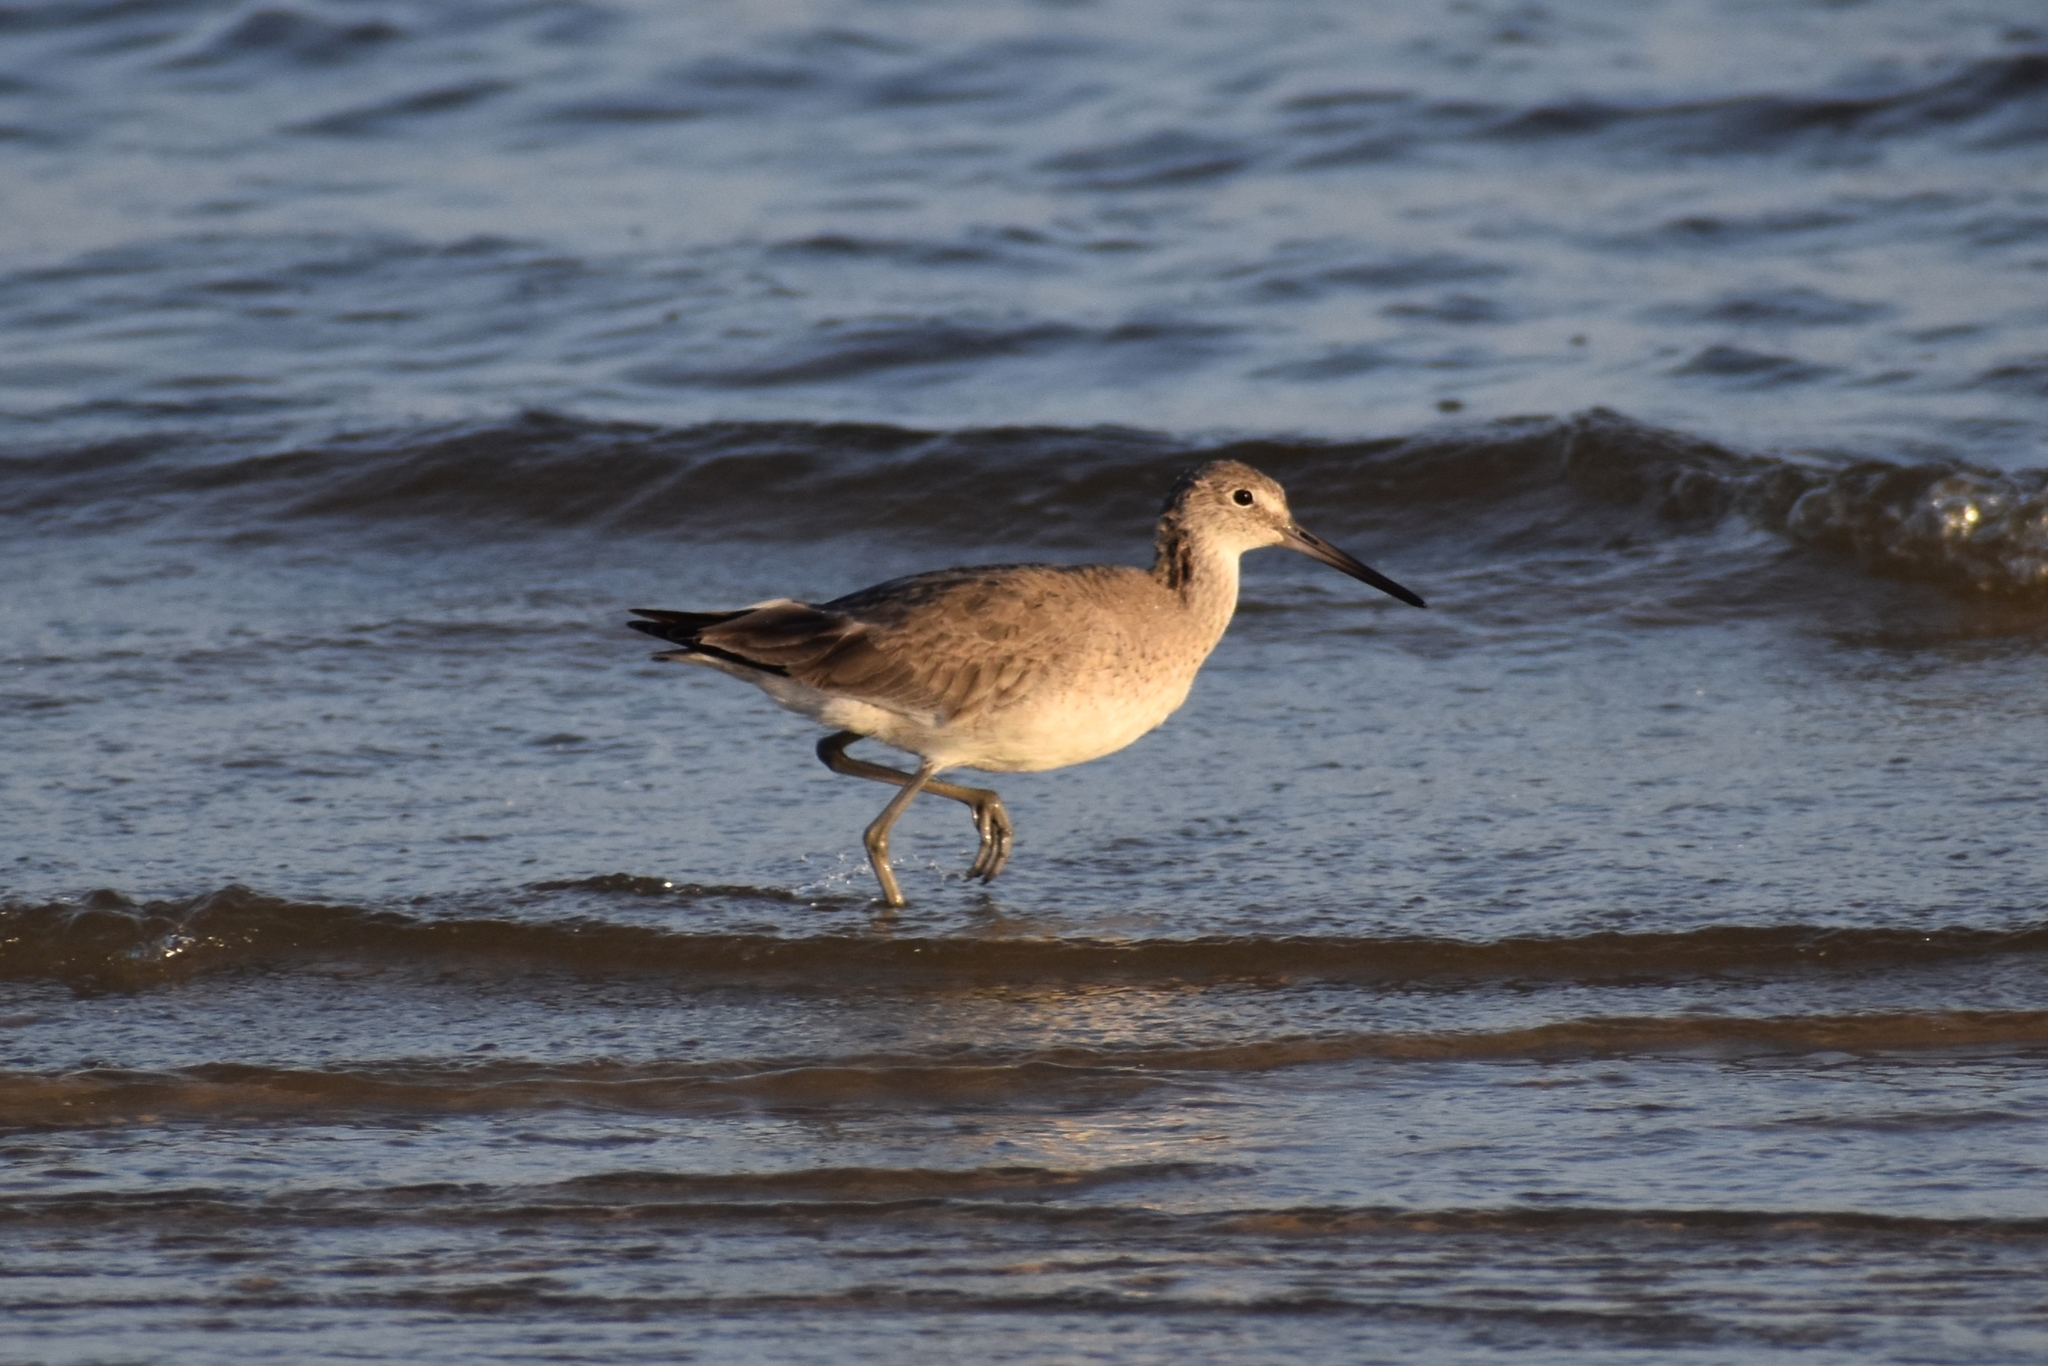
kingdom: Animalia
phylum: Chordata
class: Aves
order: Charadriiformes
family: Scolopacidae
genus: Tringa
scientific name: Tringa semipalmata
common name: Willet
